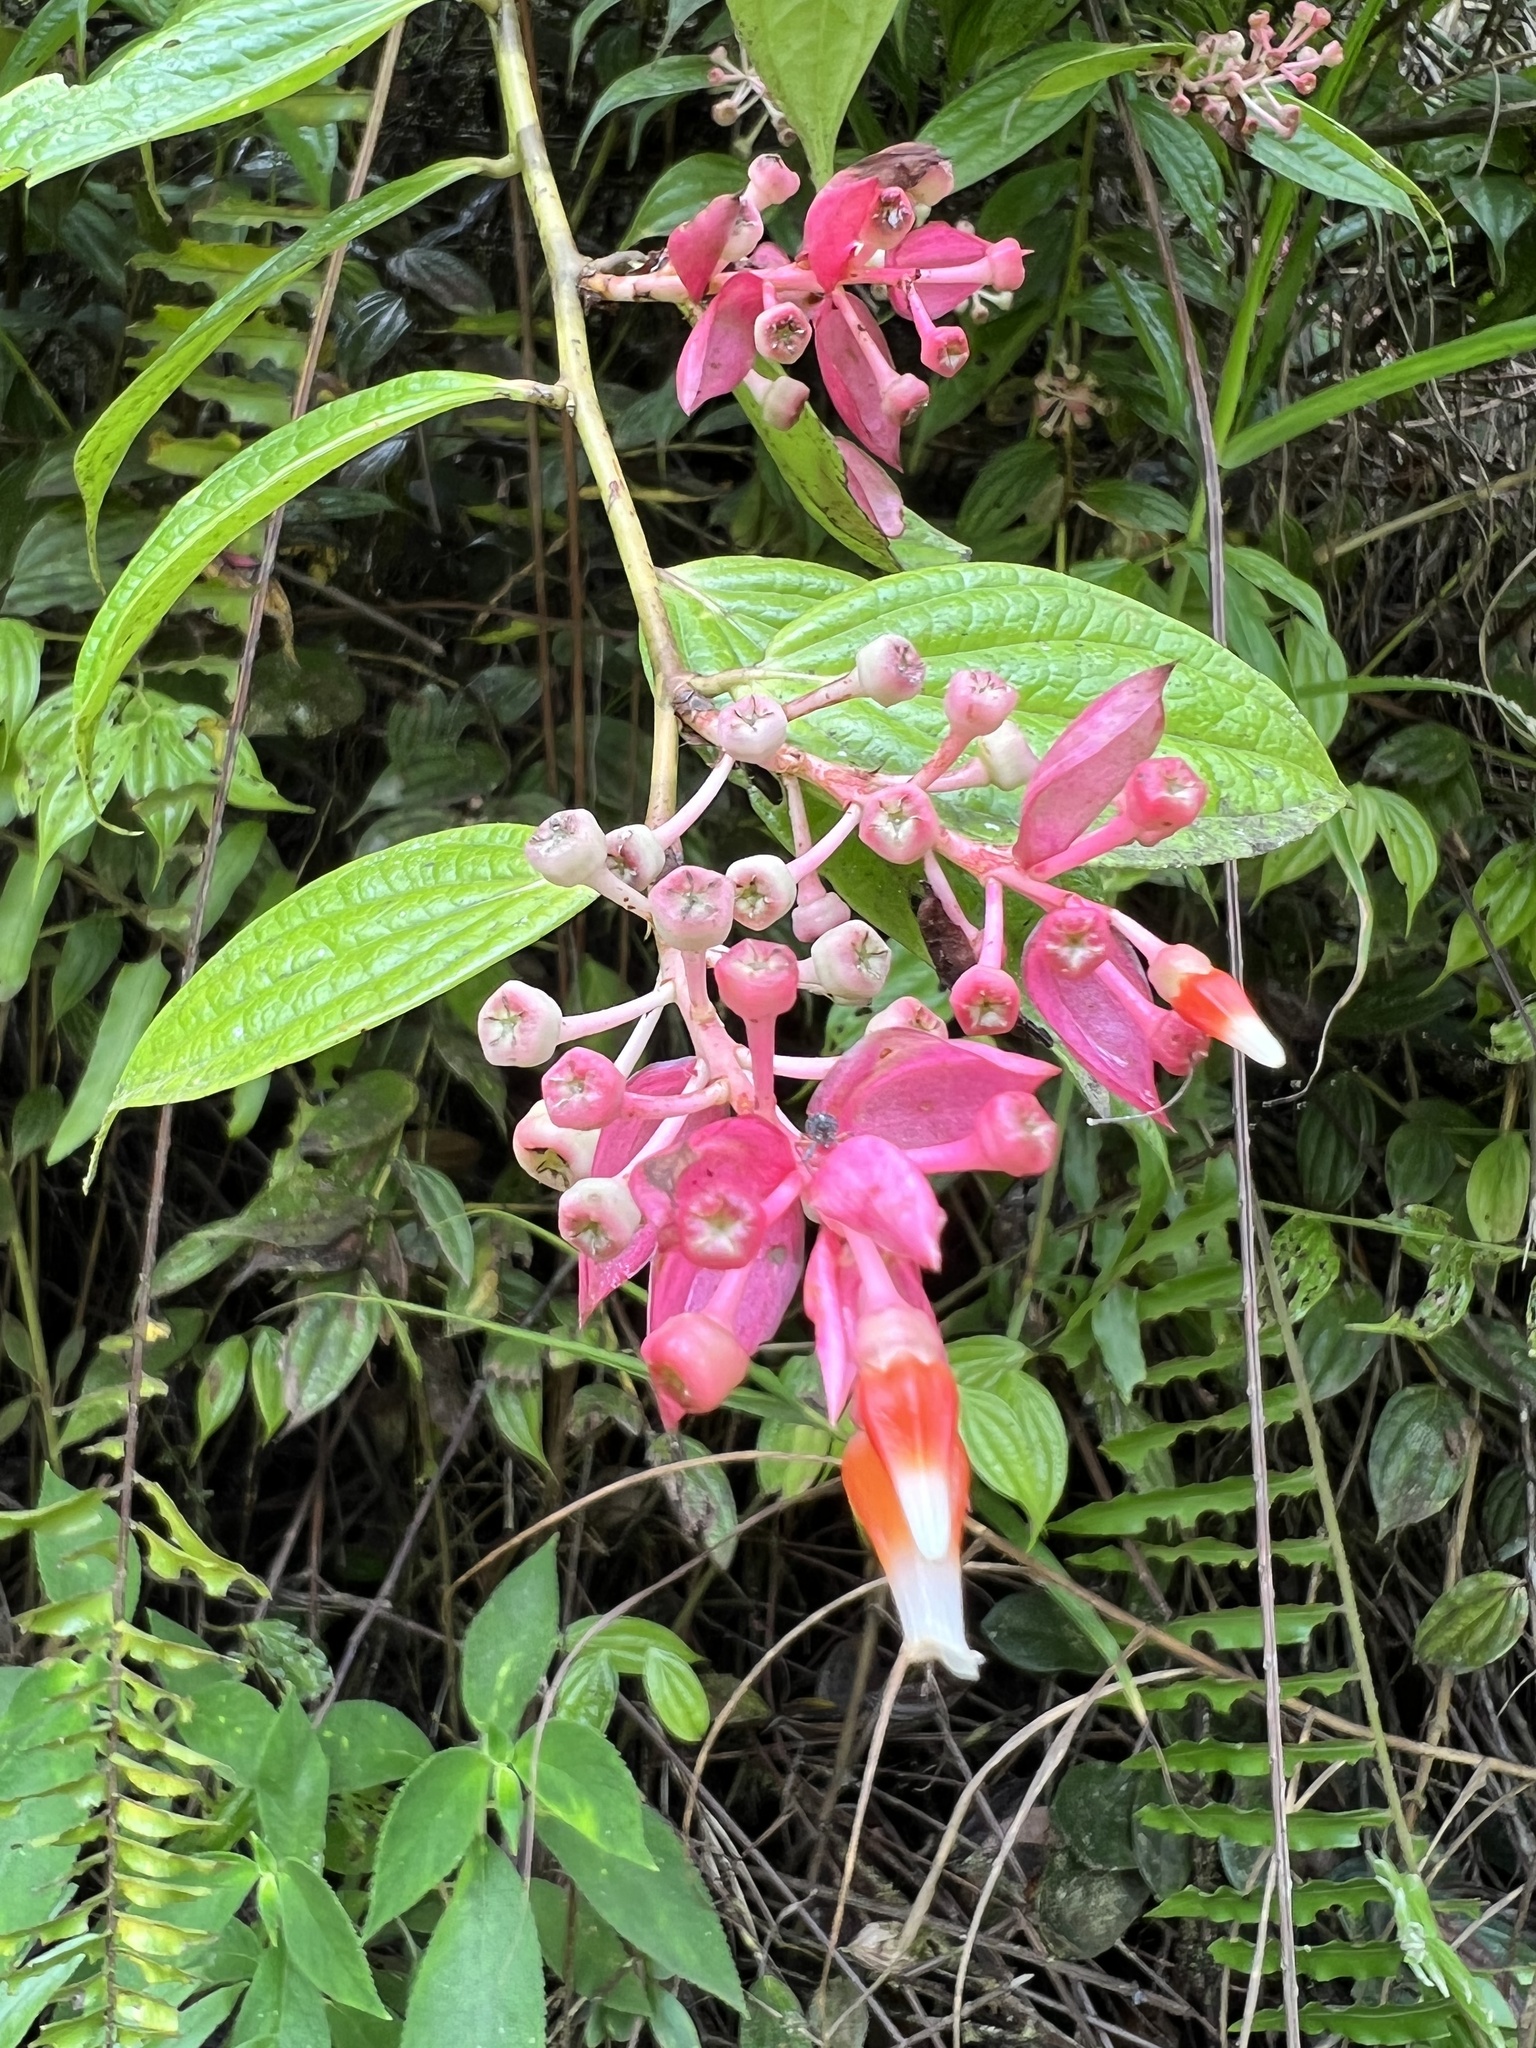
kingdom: Plantae
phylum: Tracheophyta
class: Magnoliopsida
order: Ericales
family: Ericaceae
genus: Cavendishia
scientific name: Cavendishia quereme
